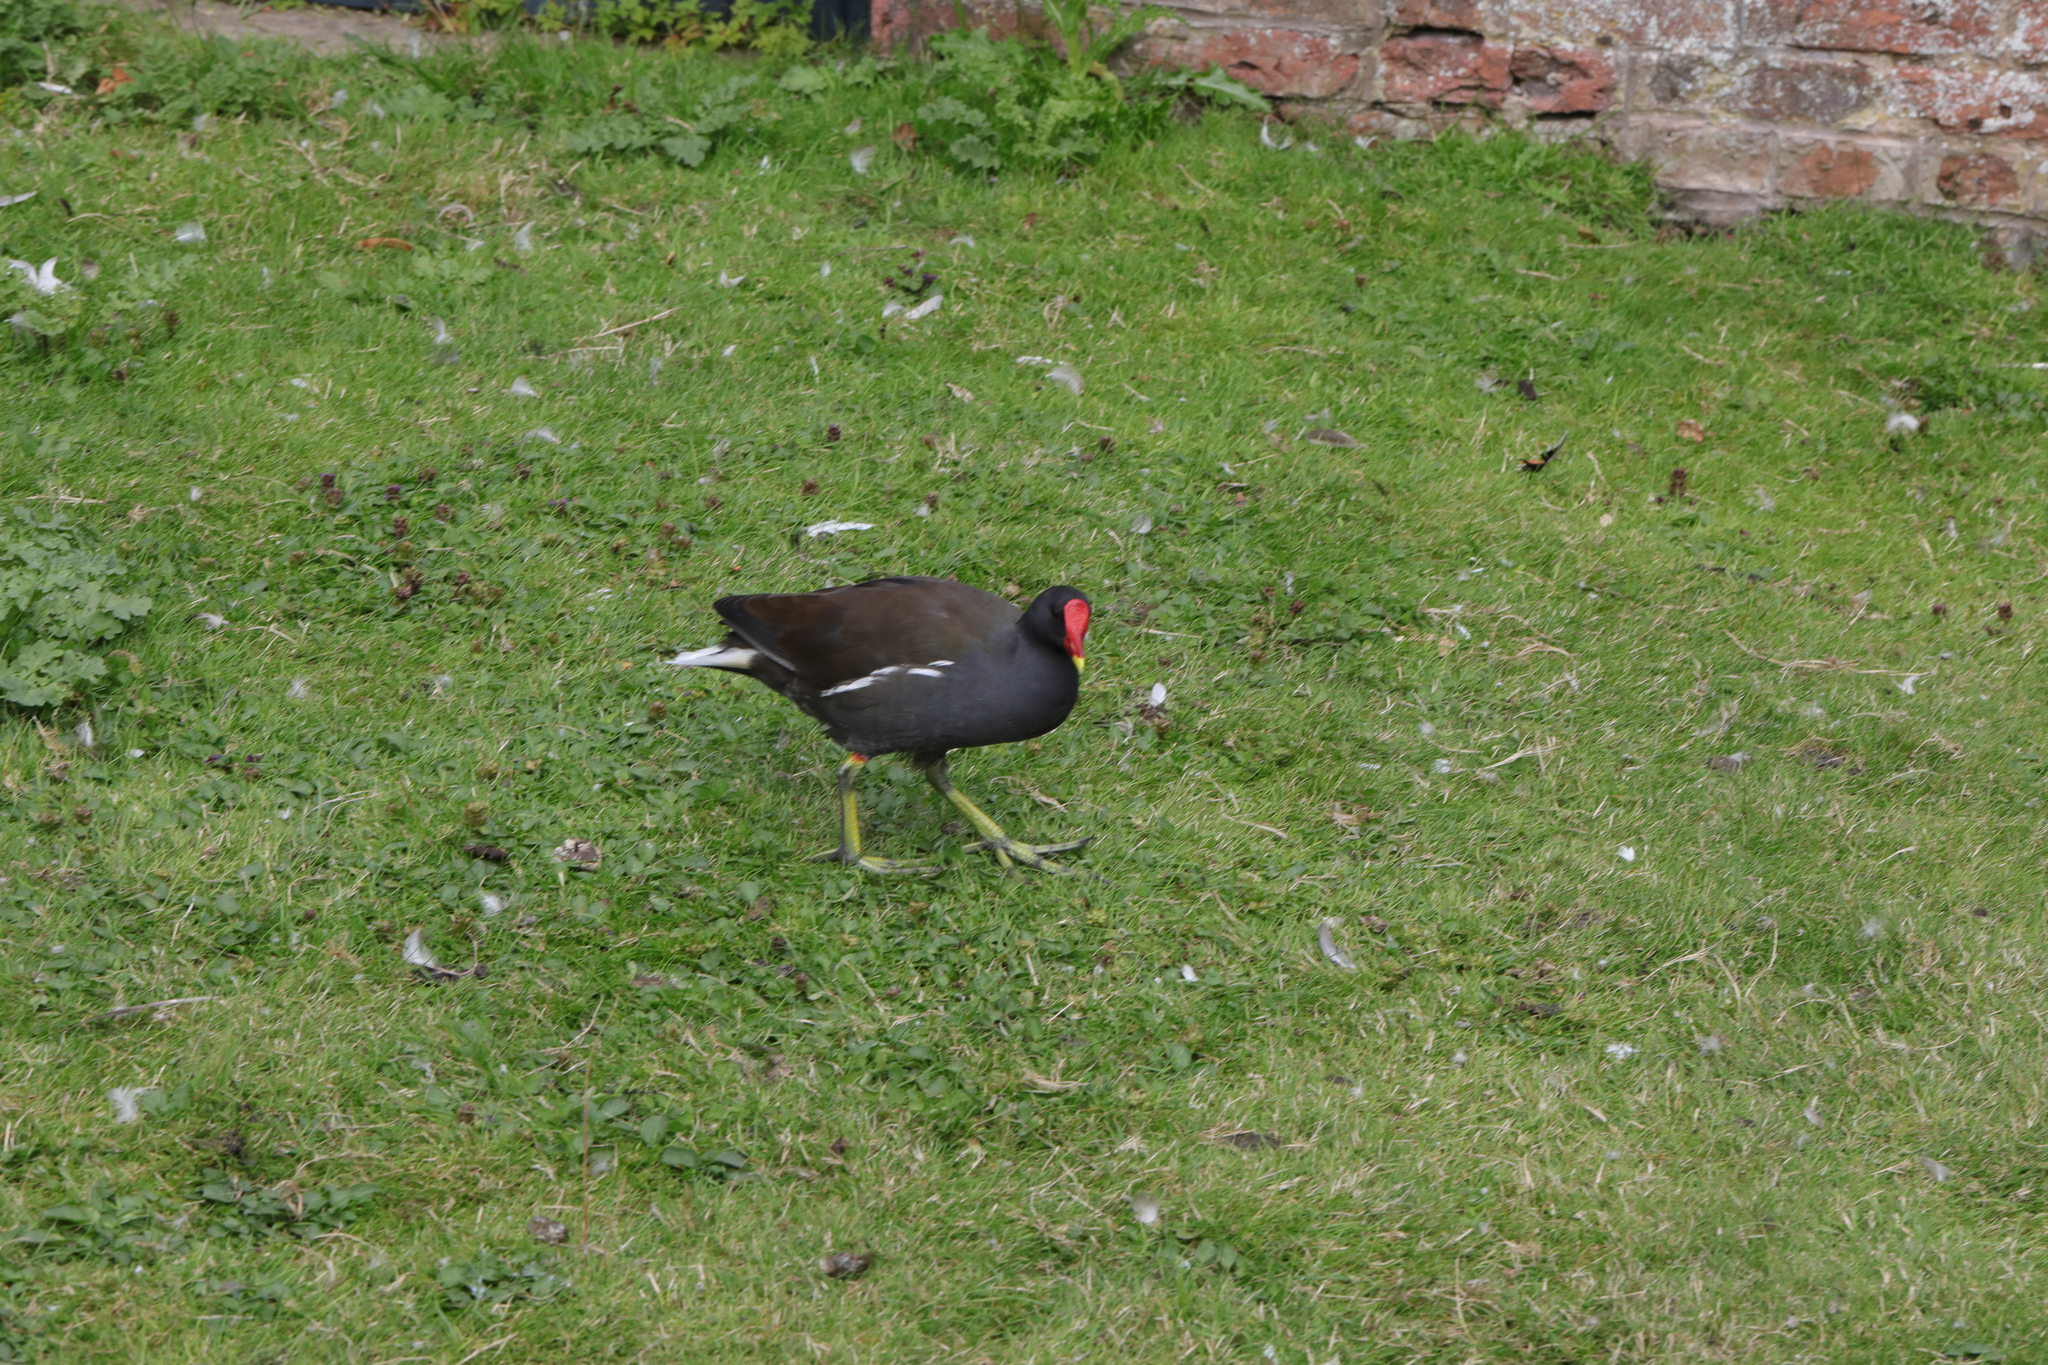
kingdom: Animalia
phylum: Chordata
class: Aves
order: Gruiformes
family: Rallidae
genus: Gallinula
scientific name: Gallinula chloropus
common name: Common moorhen
